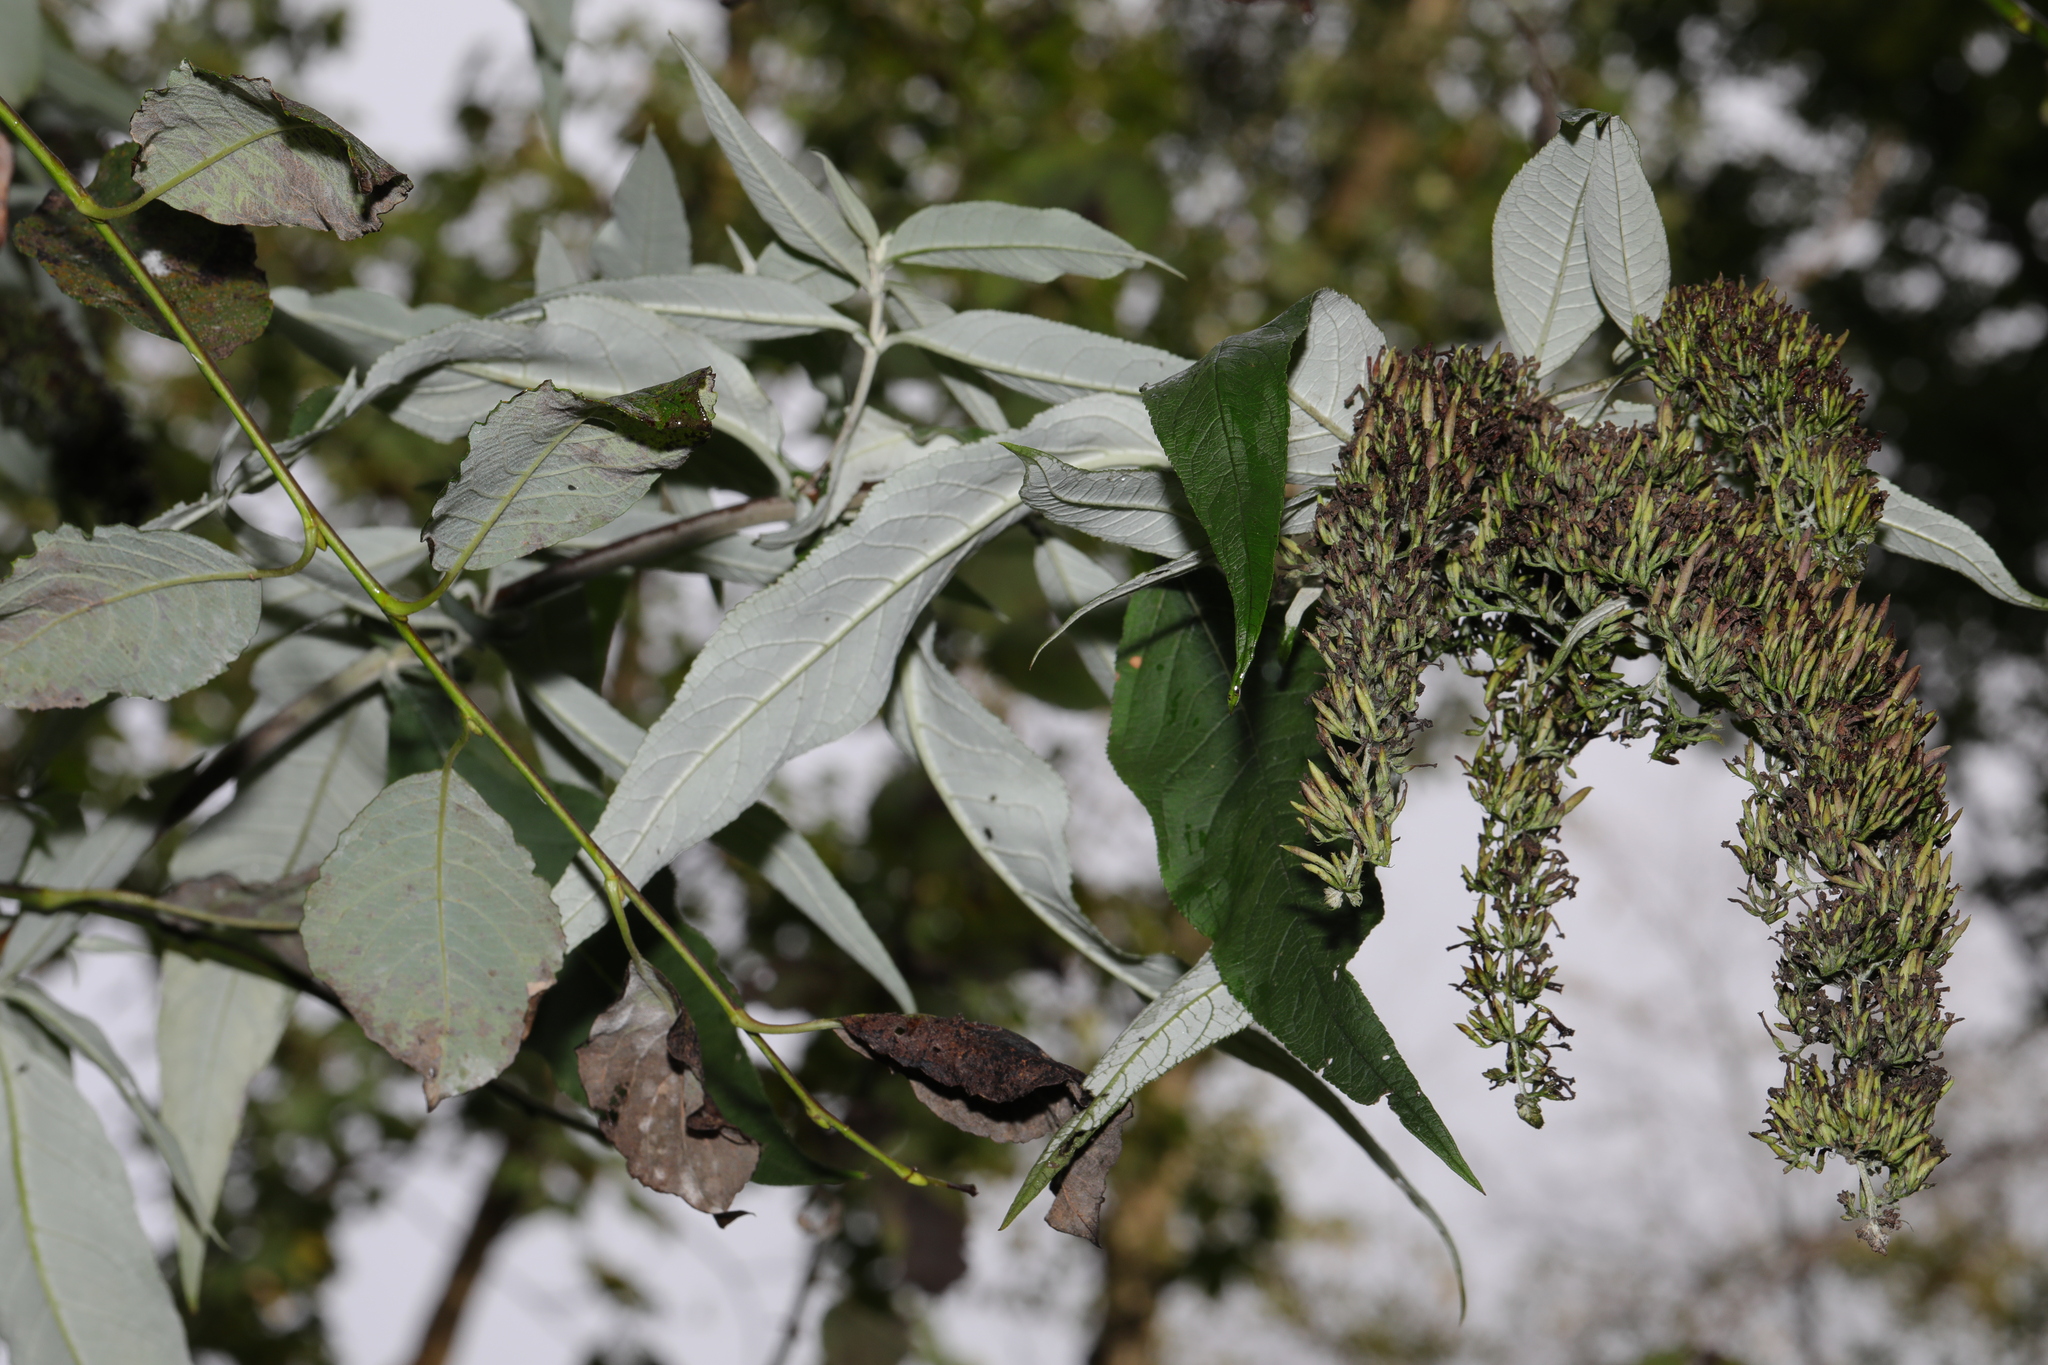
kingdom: Plantae
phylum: Tracheophyta
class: Magnoliopsida
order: Lamiales
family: Scrophulariaceae
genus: Buddleja
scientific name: Buddleja davidii
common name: Butterfly-bush
